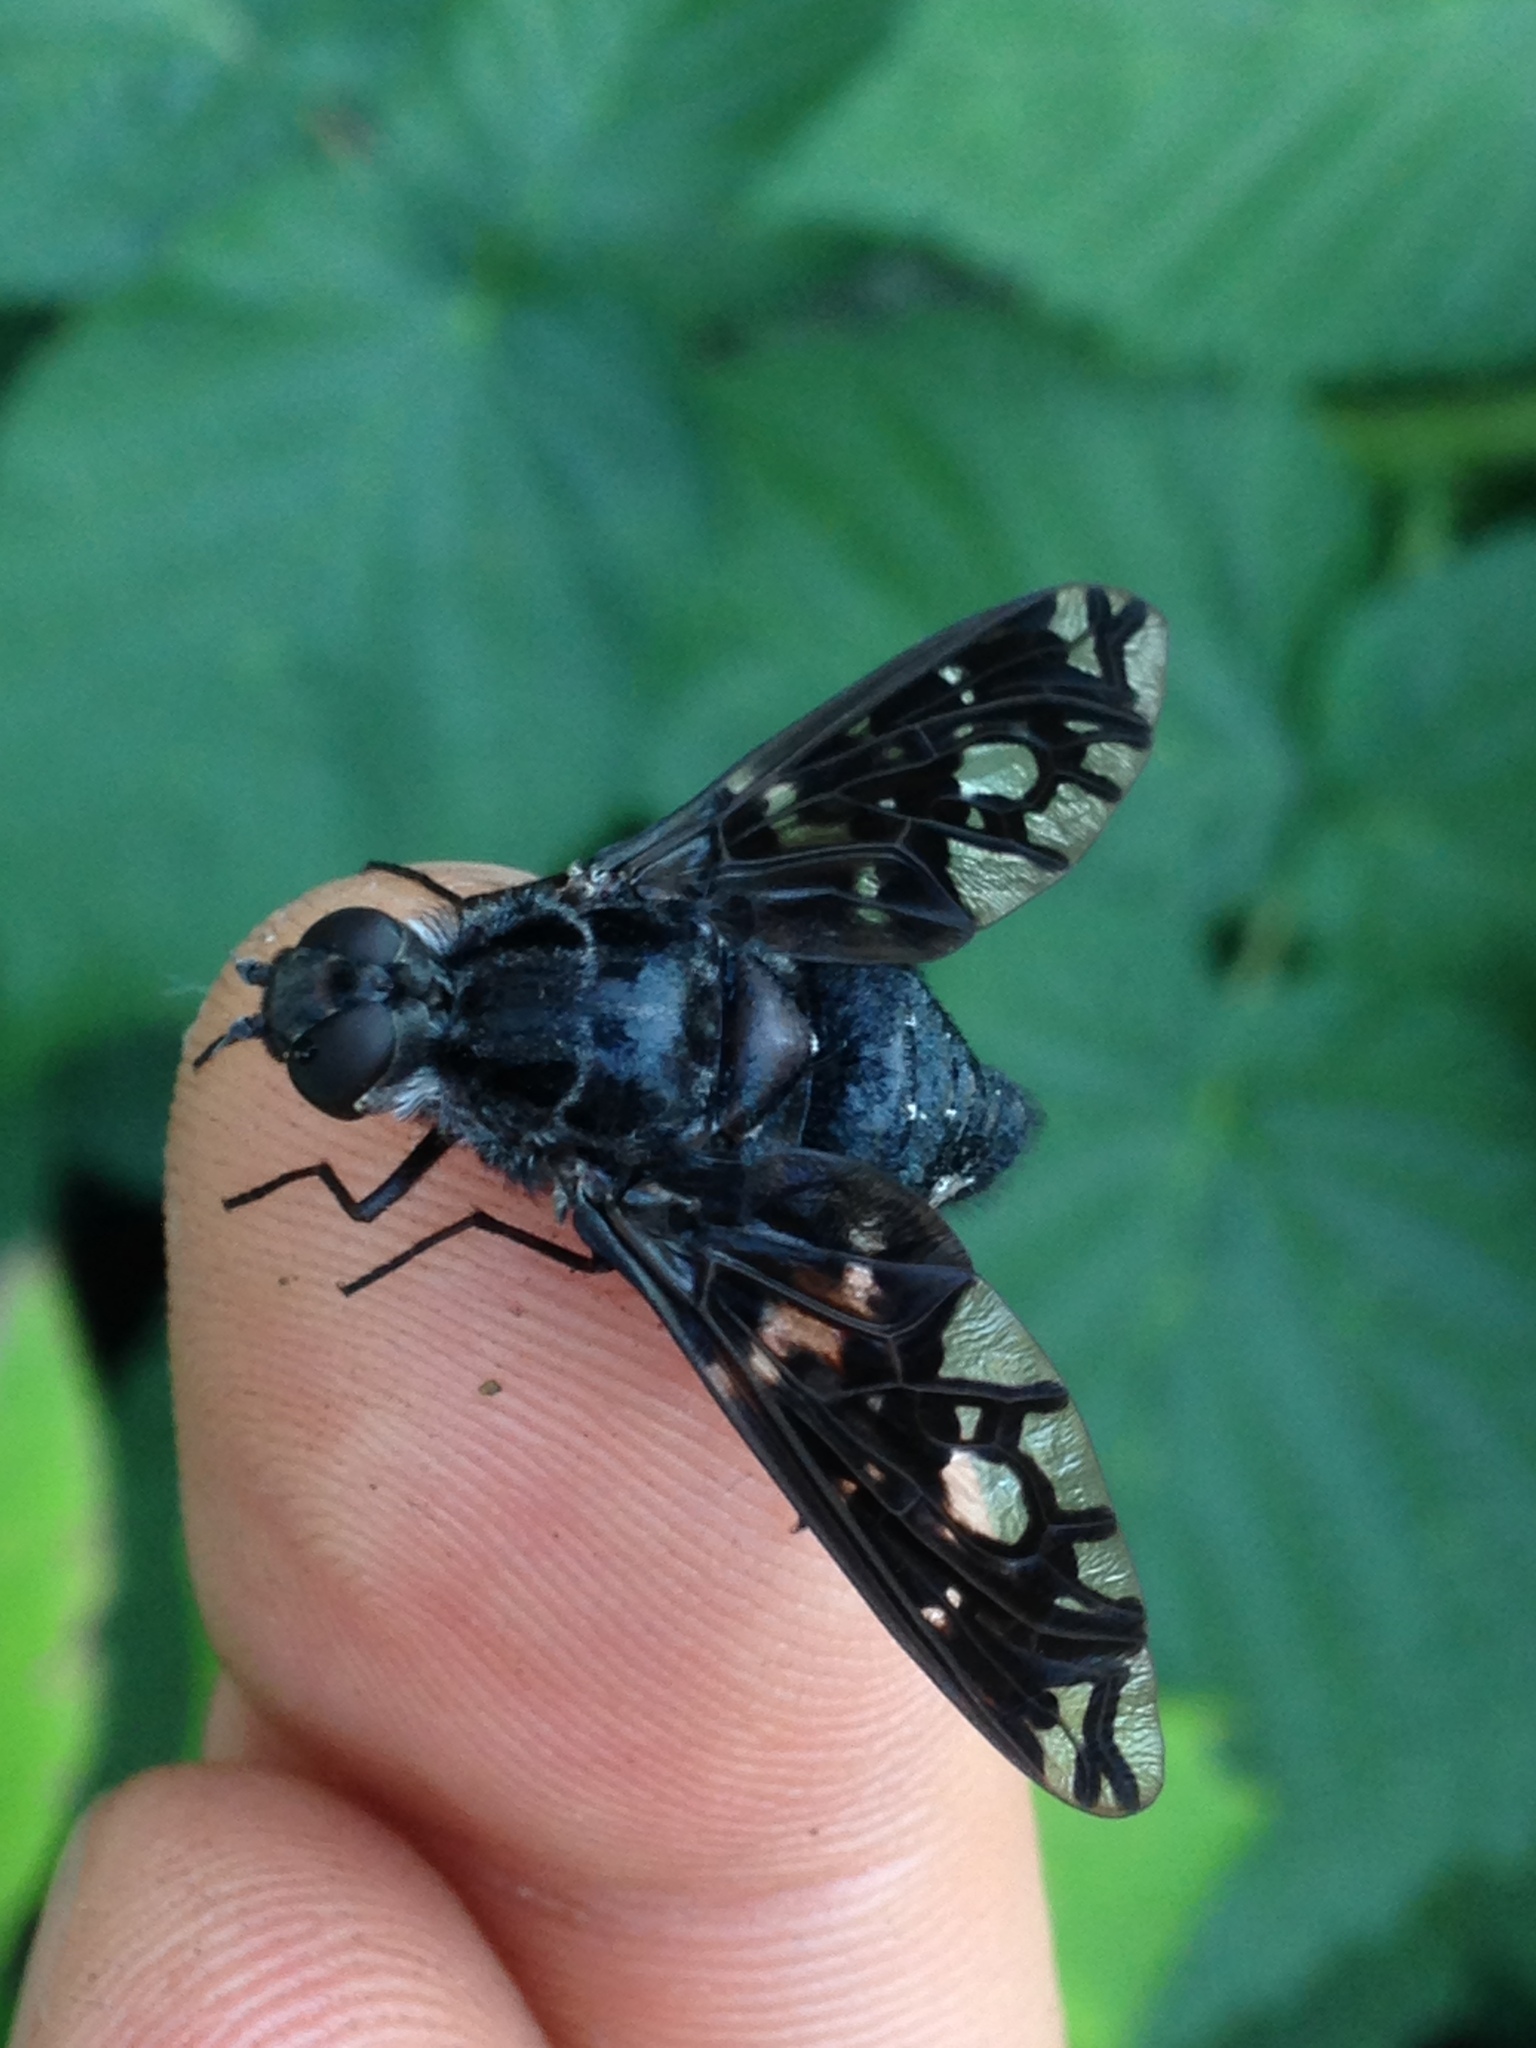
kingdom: Animalia
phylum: Arthropoda
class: Insecta
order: Diptera
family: Bombyliidae
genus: Xenox
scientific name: Xenox tigrinus
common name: Tiger bee fly
